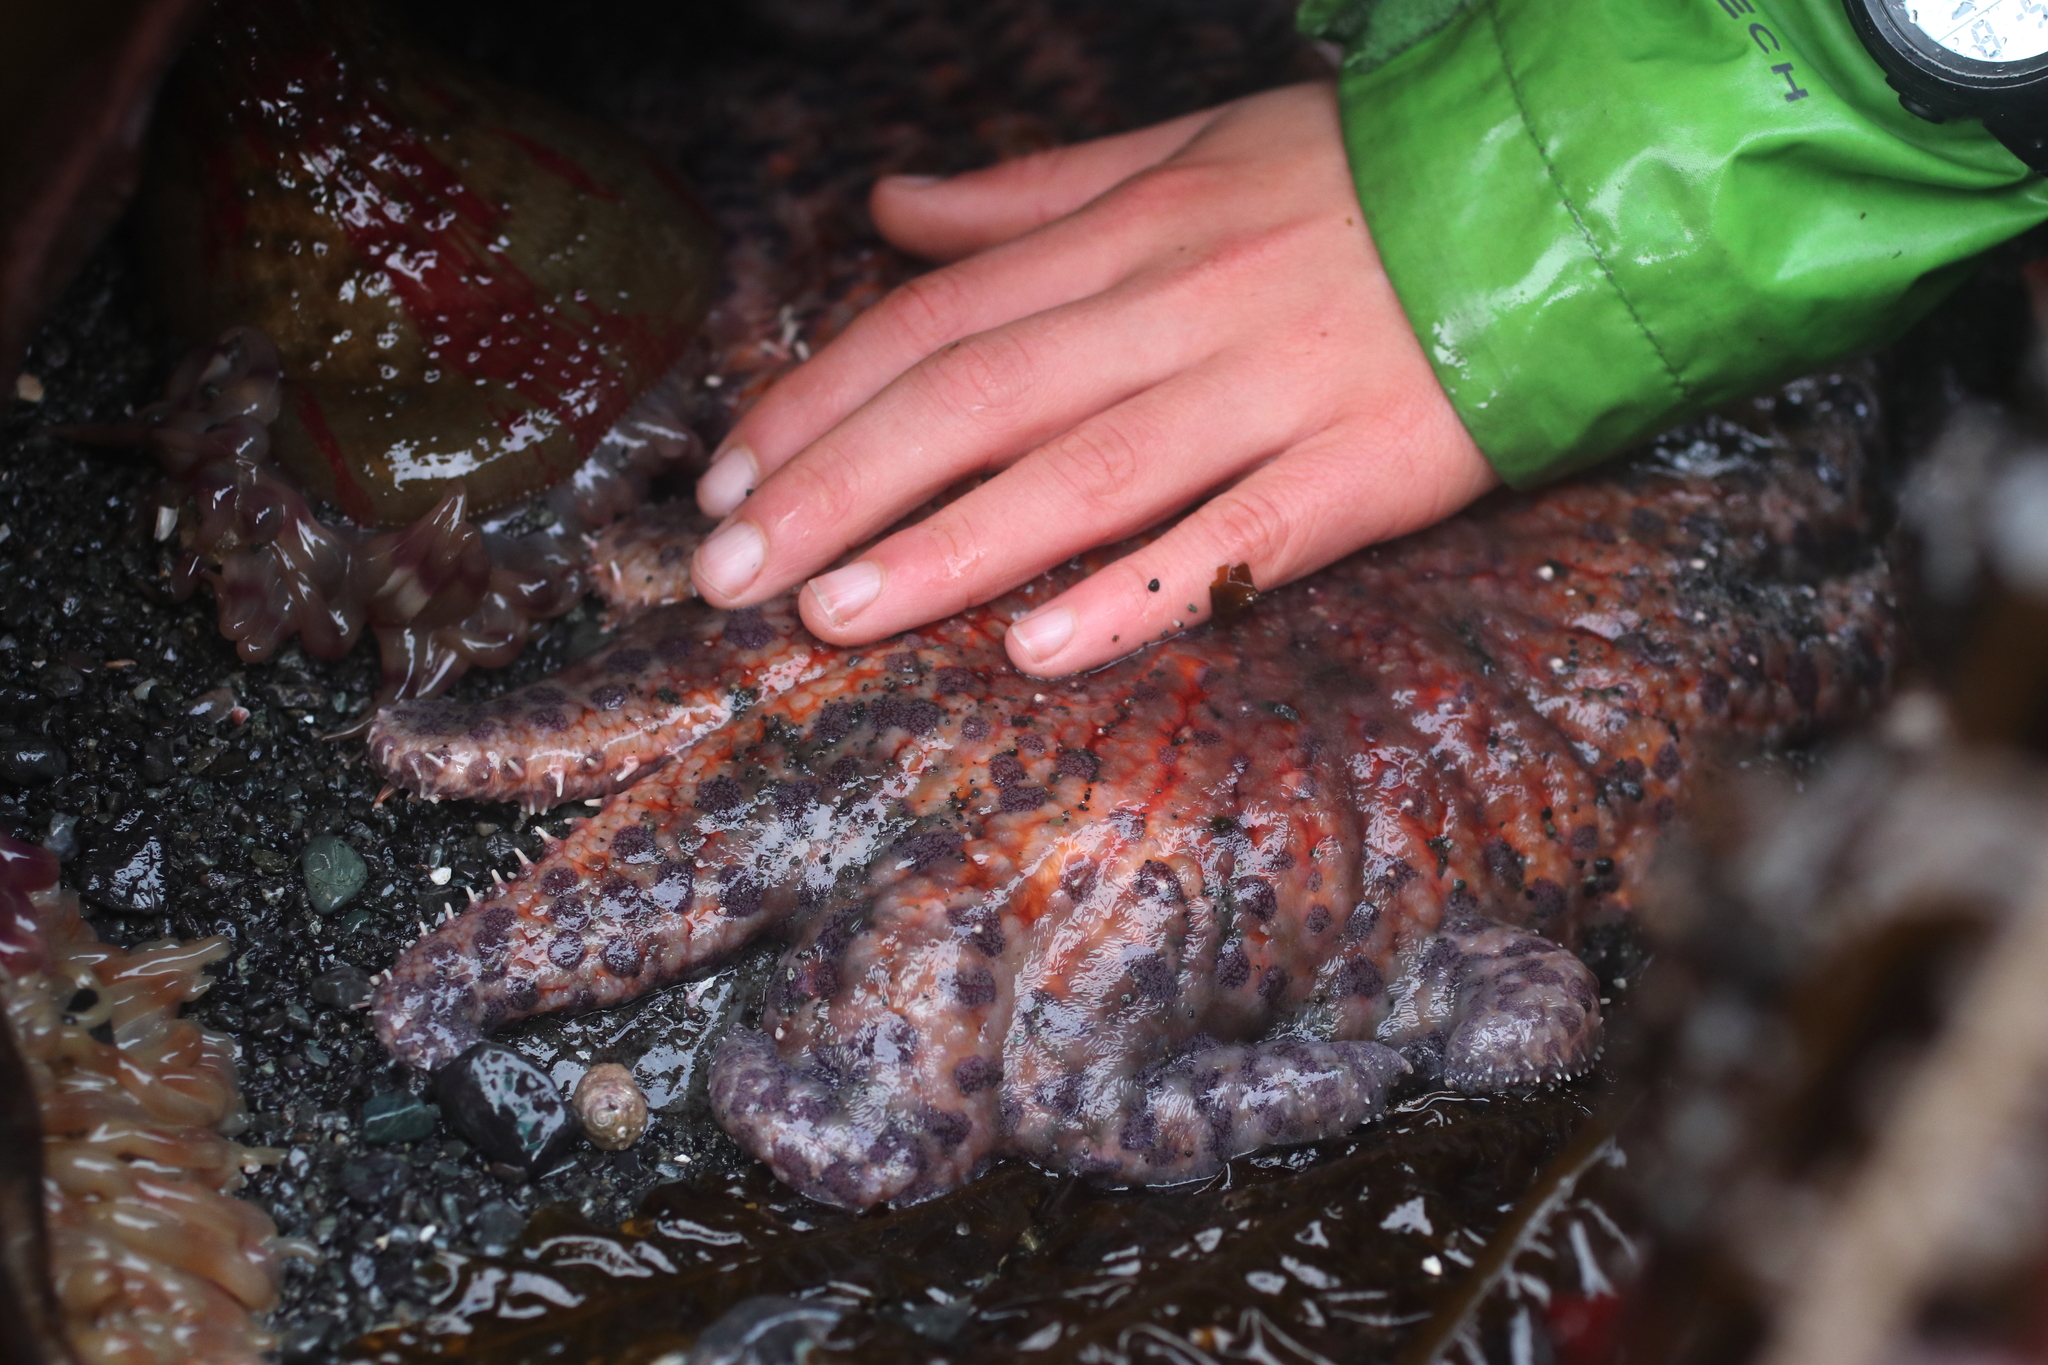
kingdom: Animalia
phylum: Echinodermata
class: Asteroidea
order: Forcipulatida
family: Asteriidae
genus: Pycnopodia
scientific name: Pycnopodia helianthoides
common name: Rag mop
